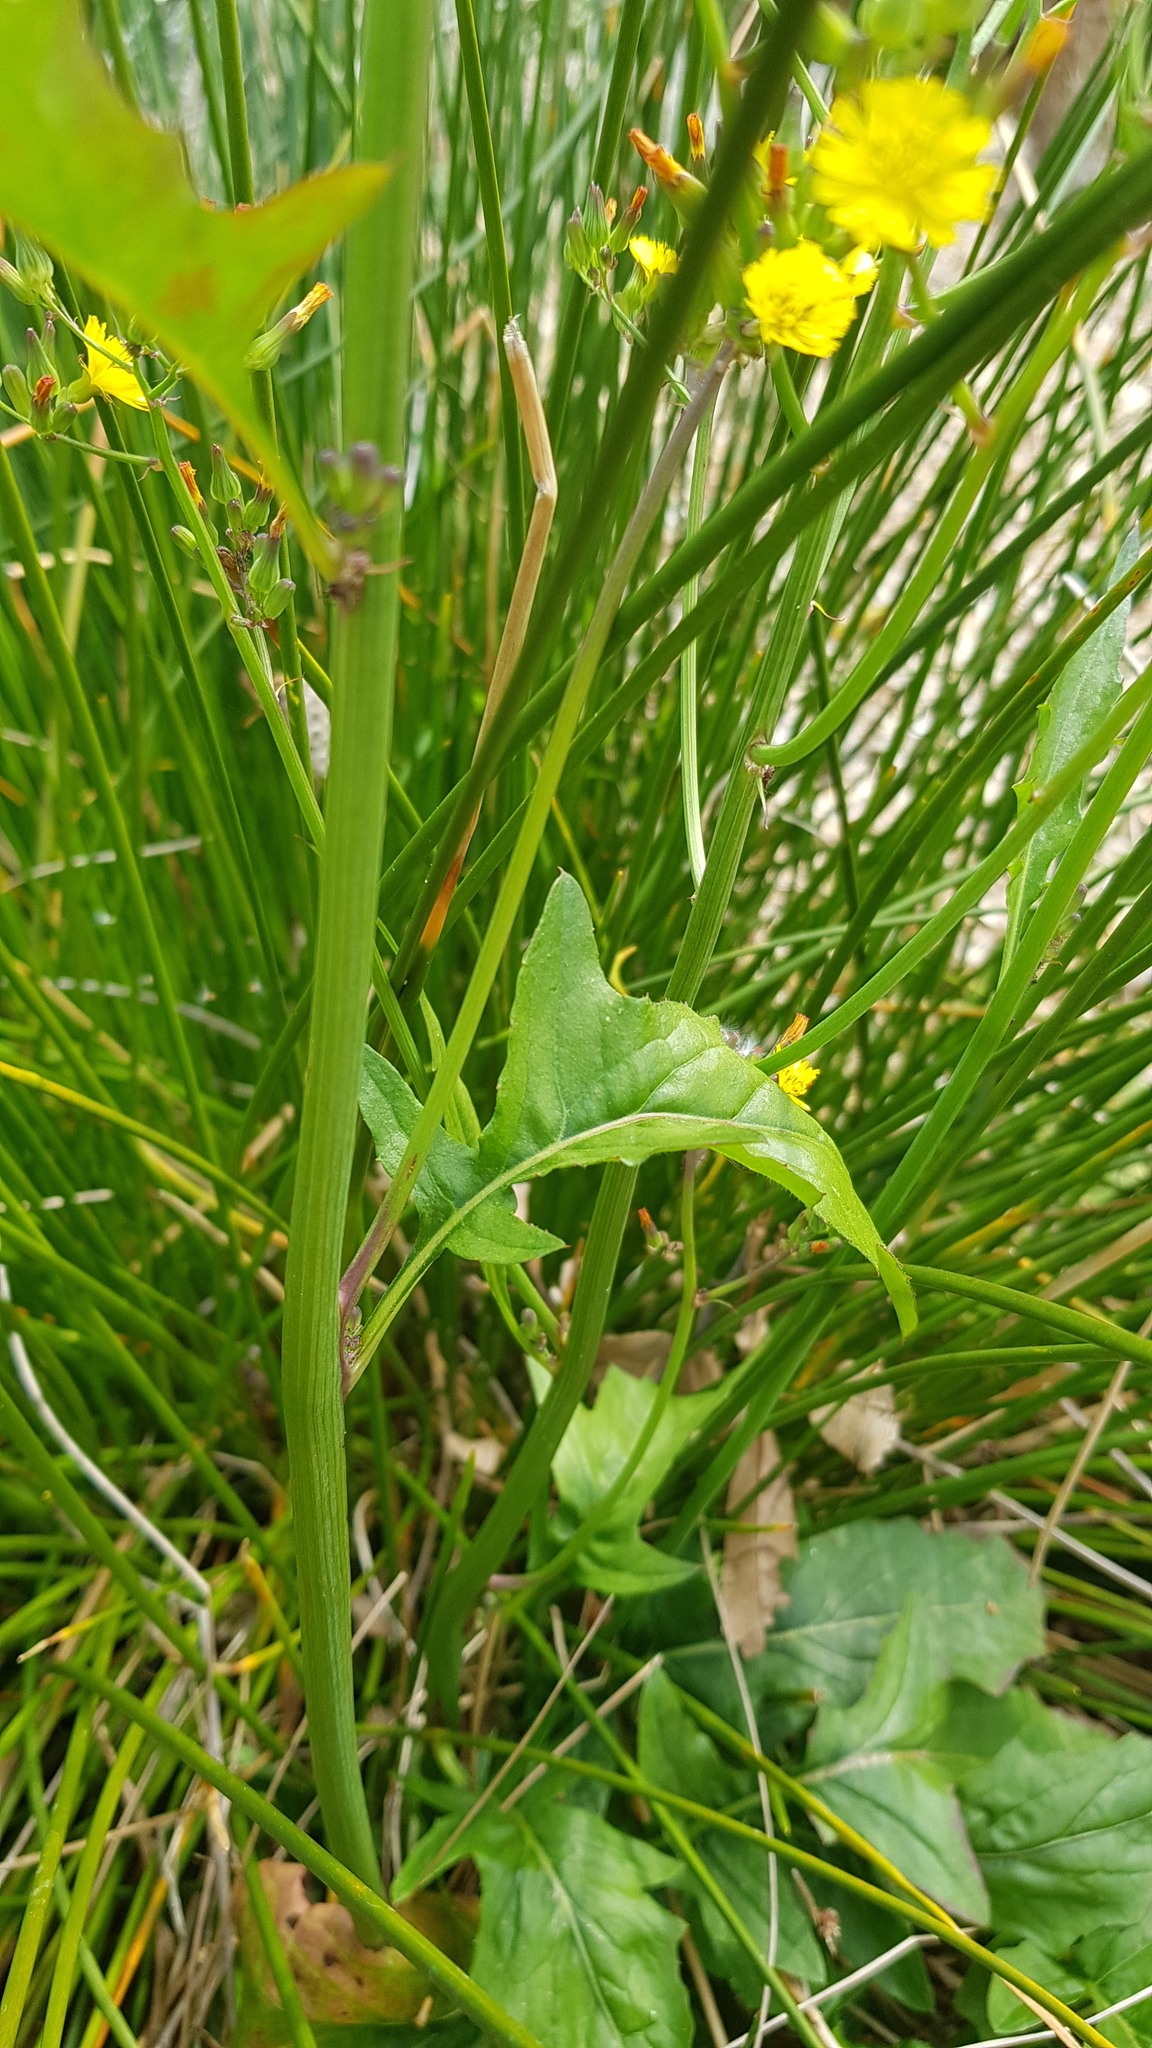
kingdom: Plantae
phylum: Tracheophyta
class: Magnoliopsida
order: Asterales
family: Asteraceae
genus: Youngia
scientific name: Youngia japonica
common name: Oriental false hawksbeard
